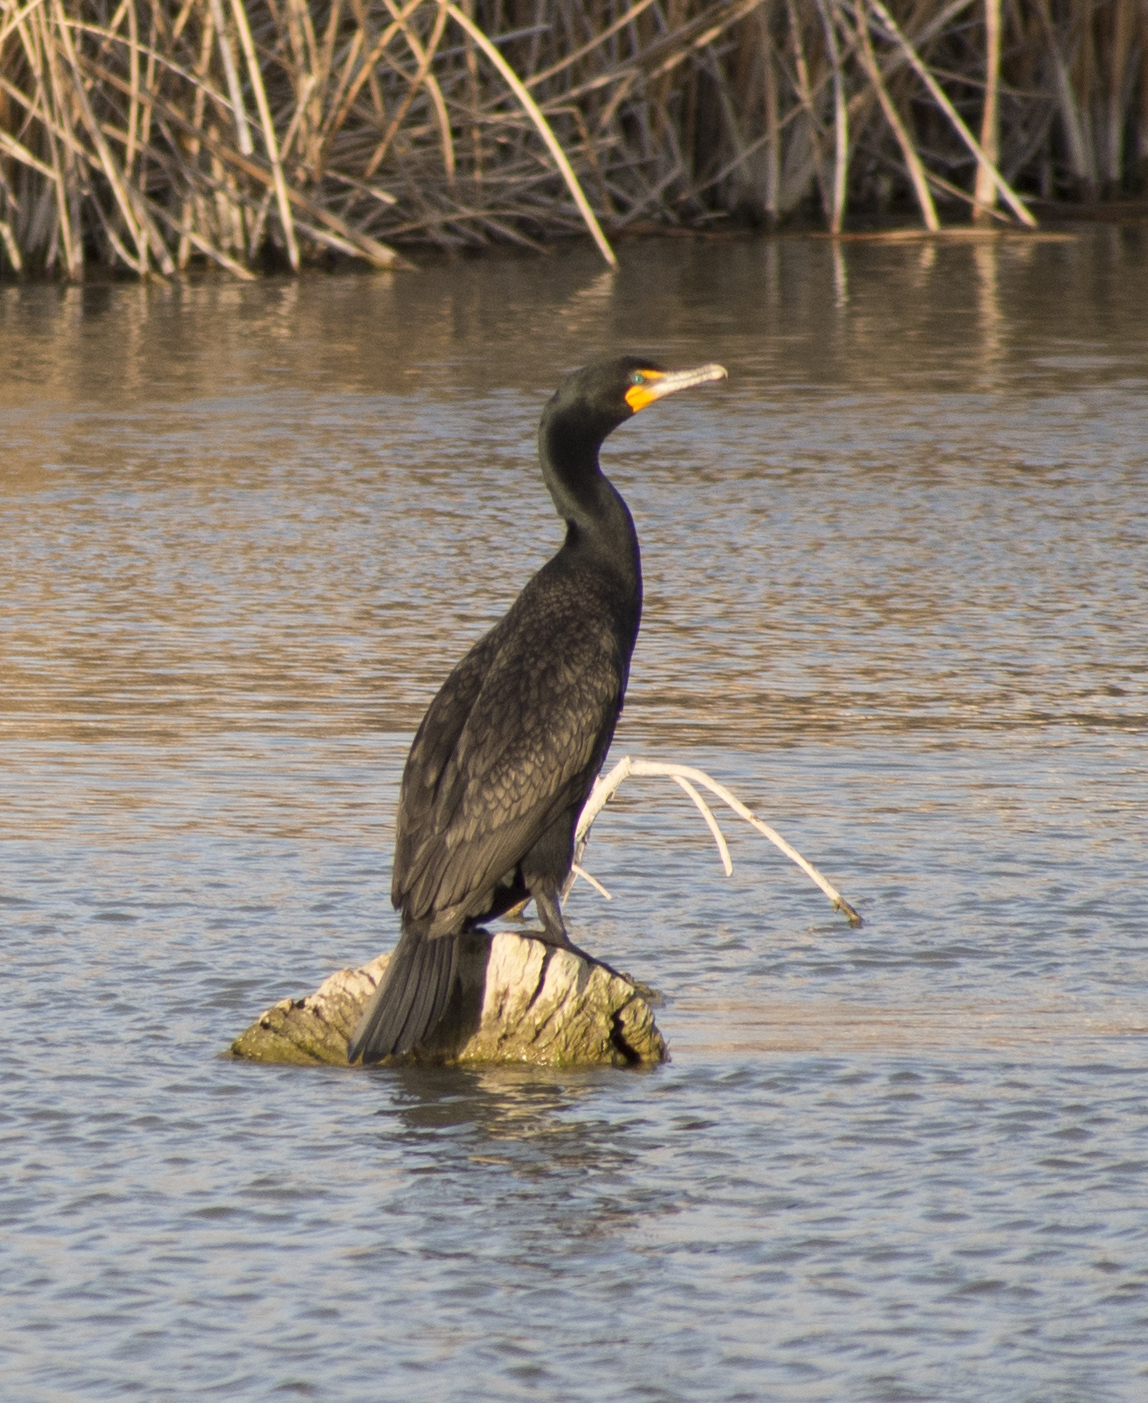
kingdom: Animalia
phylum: Chordata
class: Aves
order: Suliformes
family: Phalacrocoracidae
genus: Phalacrocorax
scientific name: Phalacrocorax auritus
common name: Double-crested cormorant
